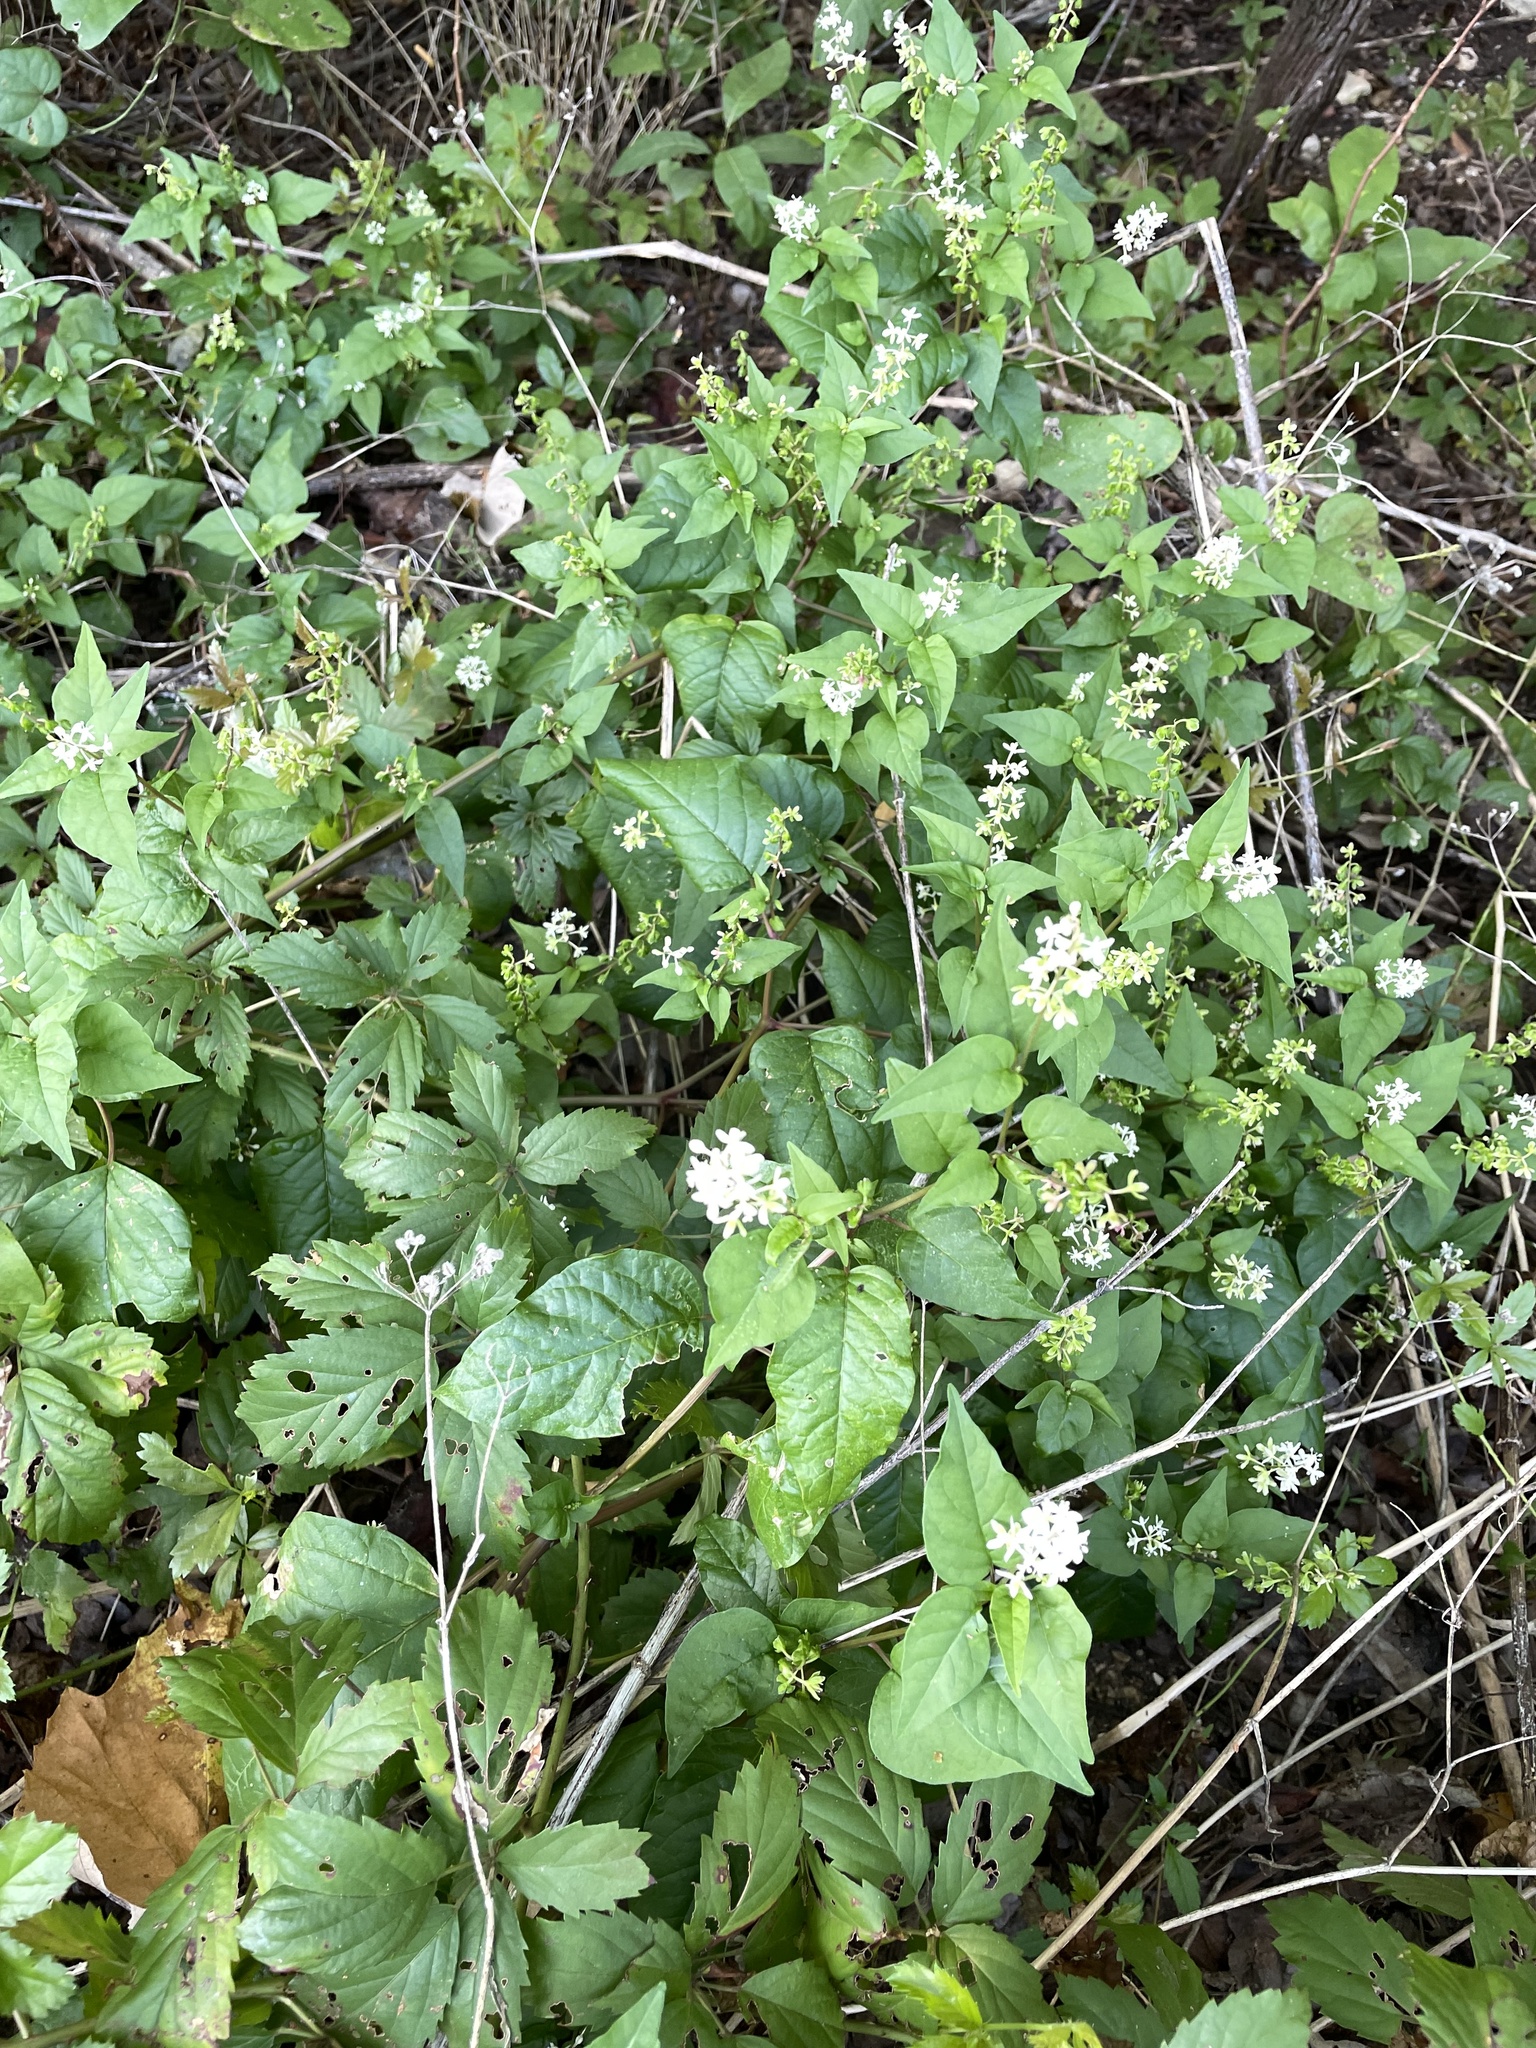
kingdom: Plantae
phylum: Tracheophyta
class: Magnoliopsida
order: Caryophyllales
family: Phytolaccaceae
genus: Rivina
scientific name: Rivina humilis
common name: Rougeplant
